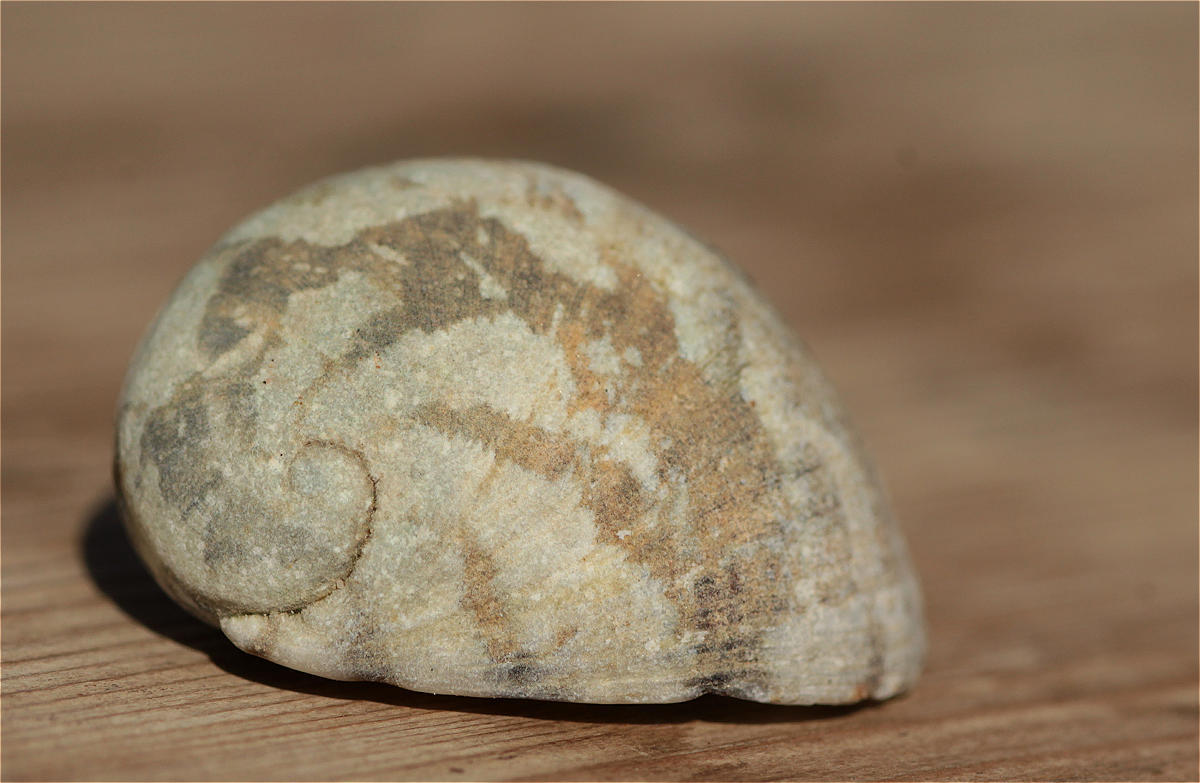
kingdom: Animalia
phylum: Mollusca
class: Gastropoda
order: Cycloneritida
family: Neritidae
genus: Nerita
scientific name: Nerita albicilla
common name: Blotched nerite
